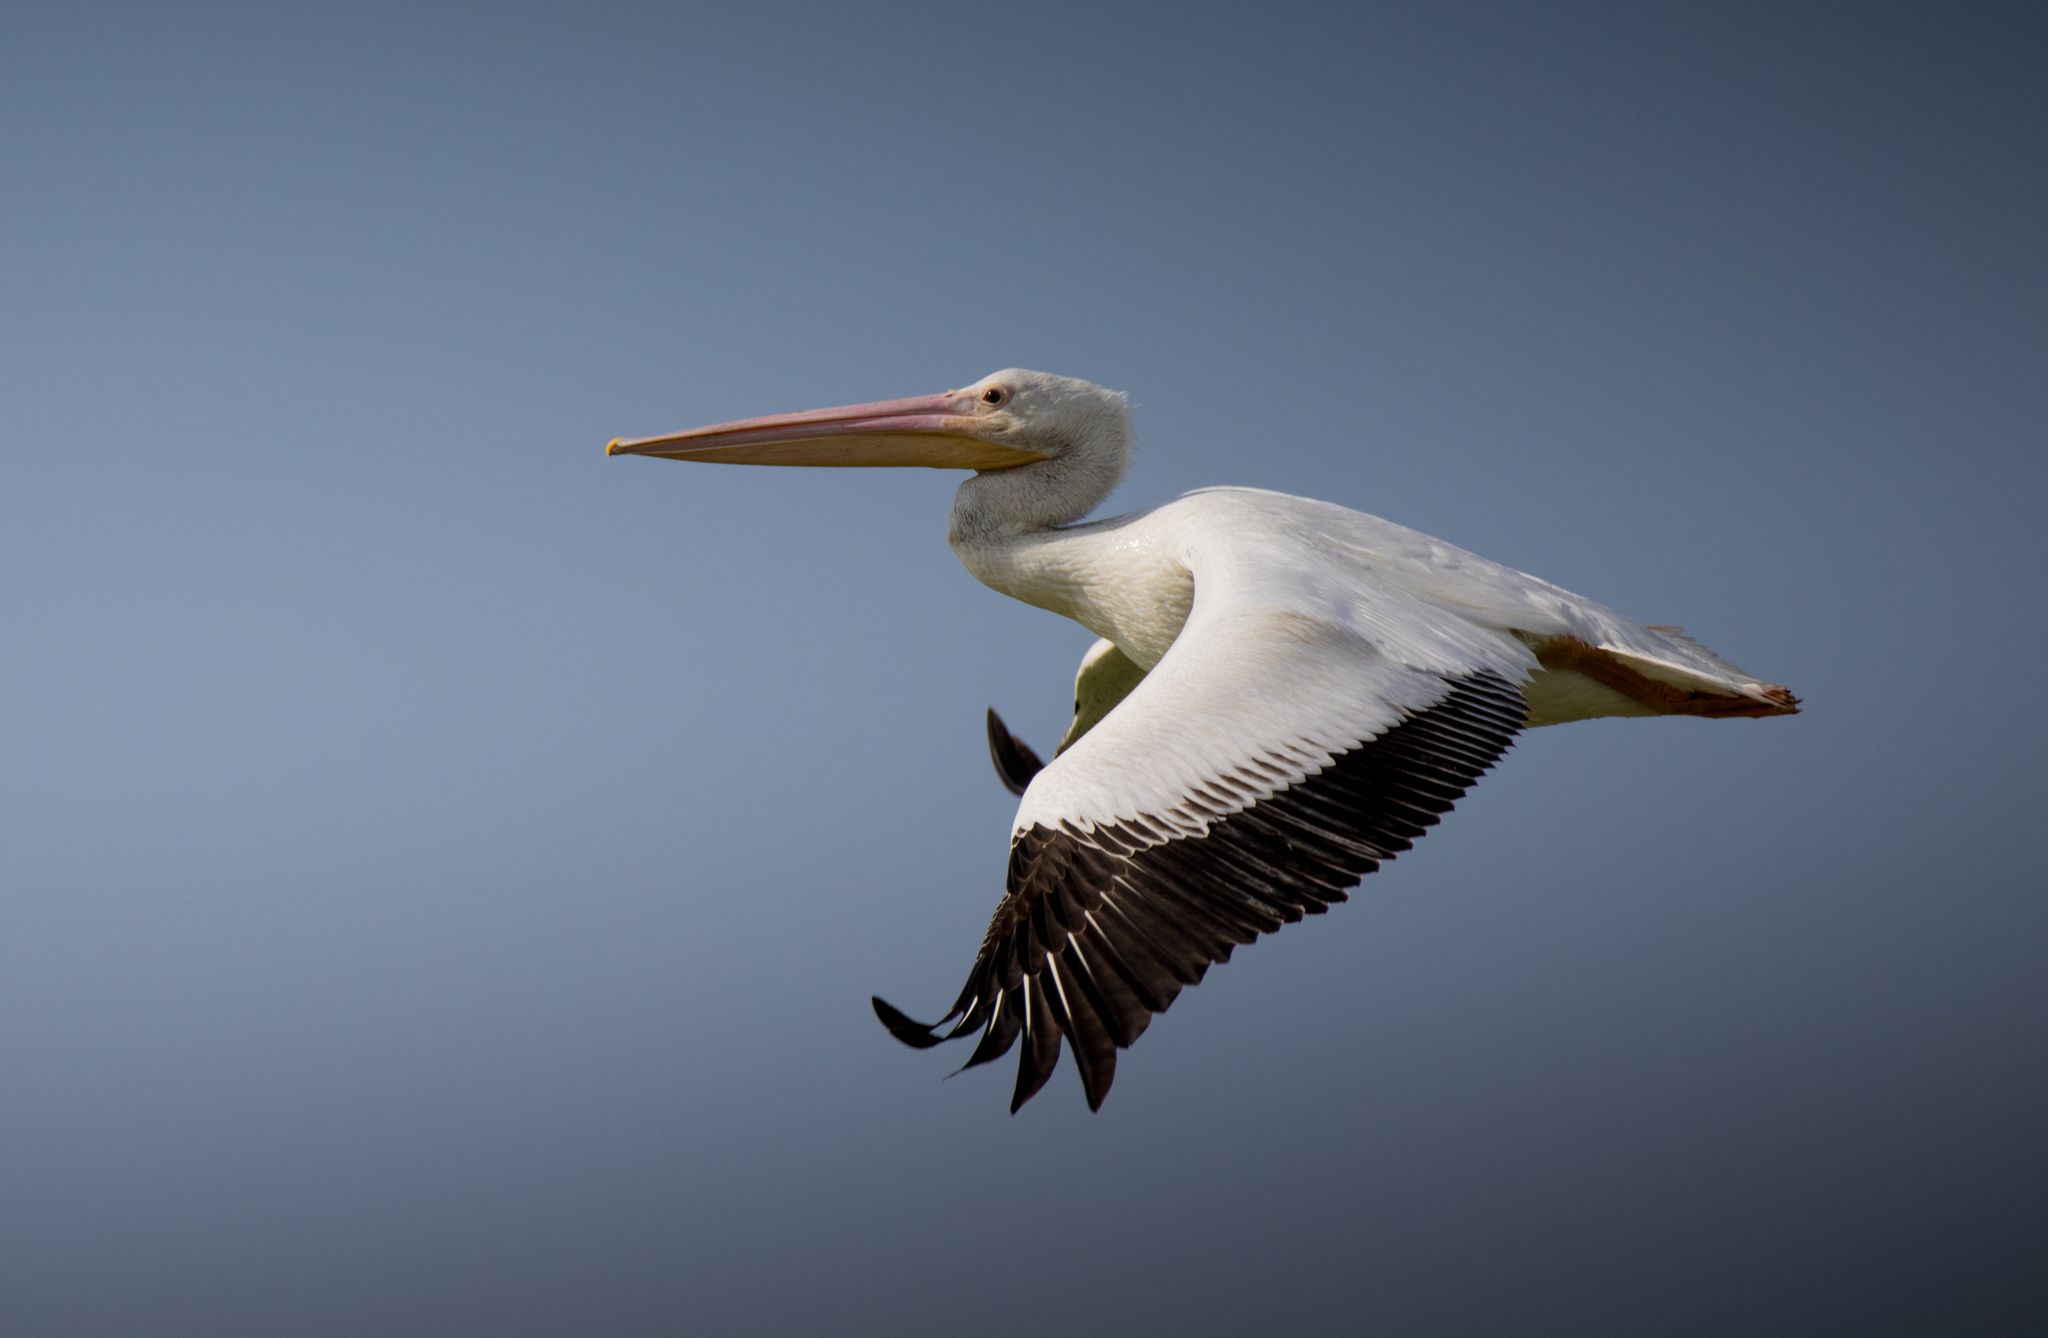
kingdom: Animalia
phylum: Chordata
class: Aves
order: Pelecaniformes
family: Pelecanidae
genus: Pelecanus
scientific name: Pelecanus erythrorhynchos
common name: American white pelican
